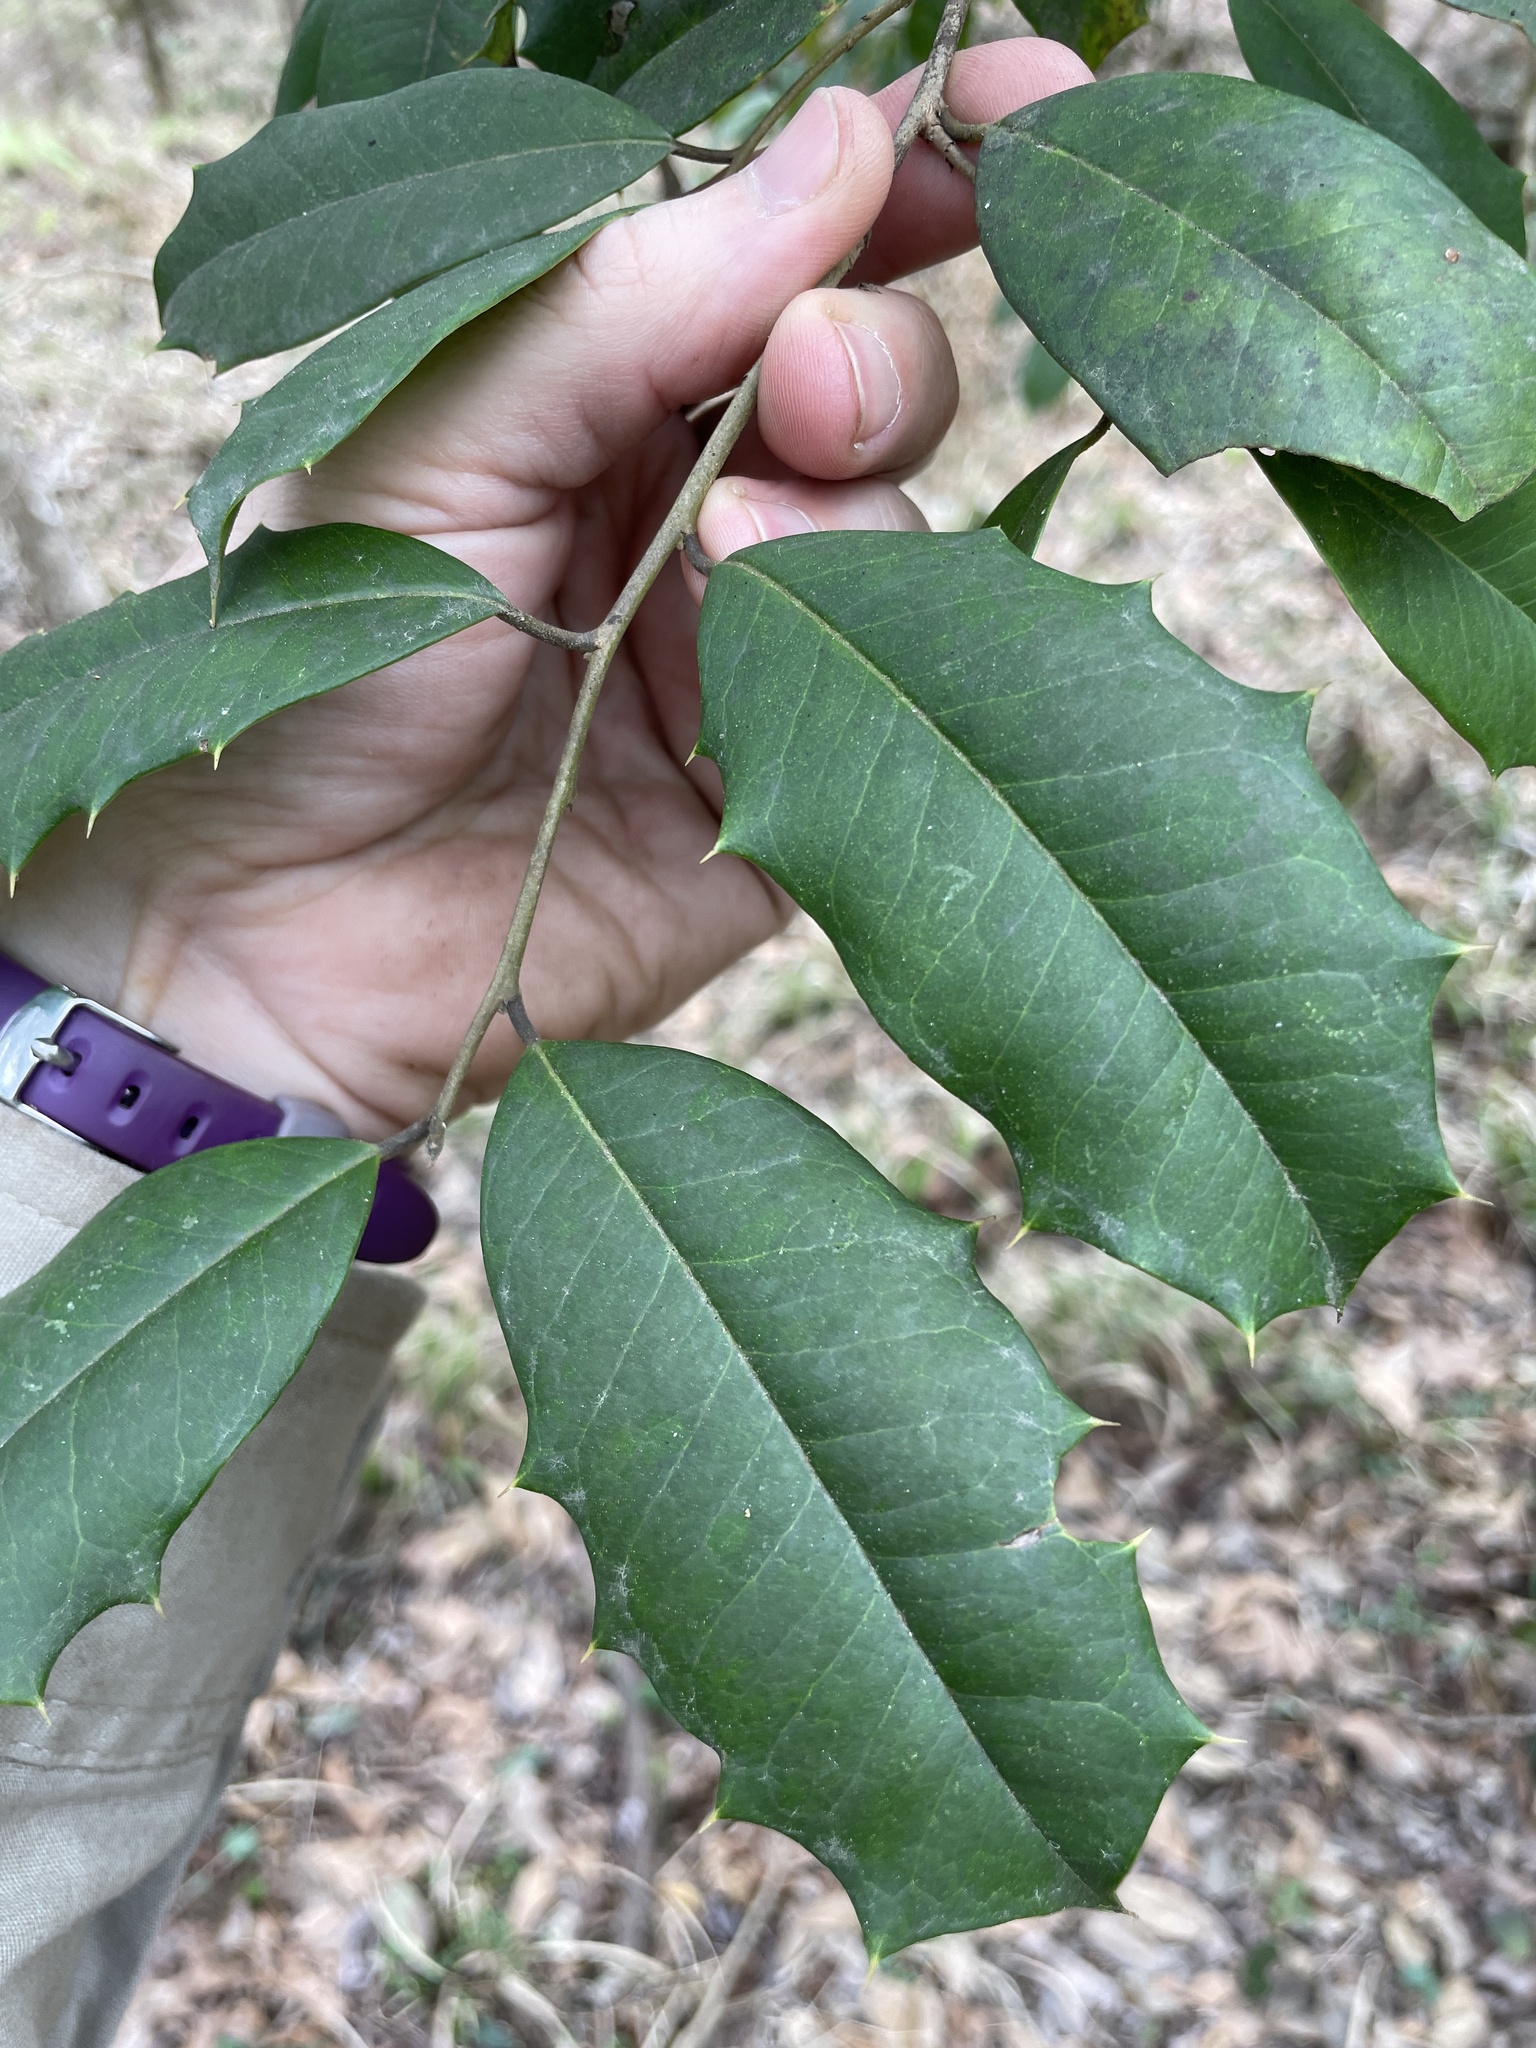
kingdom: Plantae
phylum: Tracheophyta
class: Magnoliopsida
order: Aquifoliales
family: Aquifoliaceae
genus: Ilex
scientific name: Ilex opaca
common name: American holly
